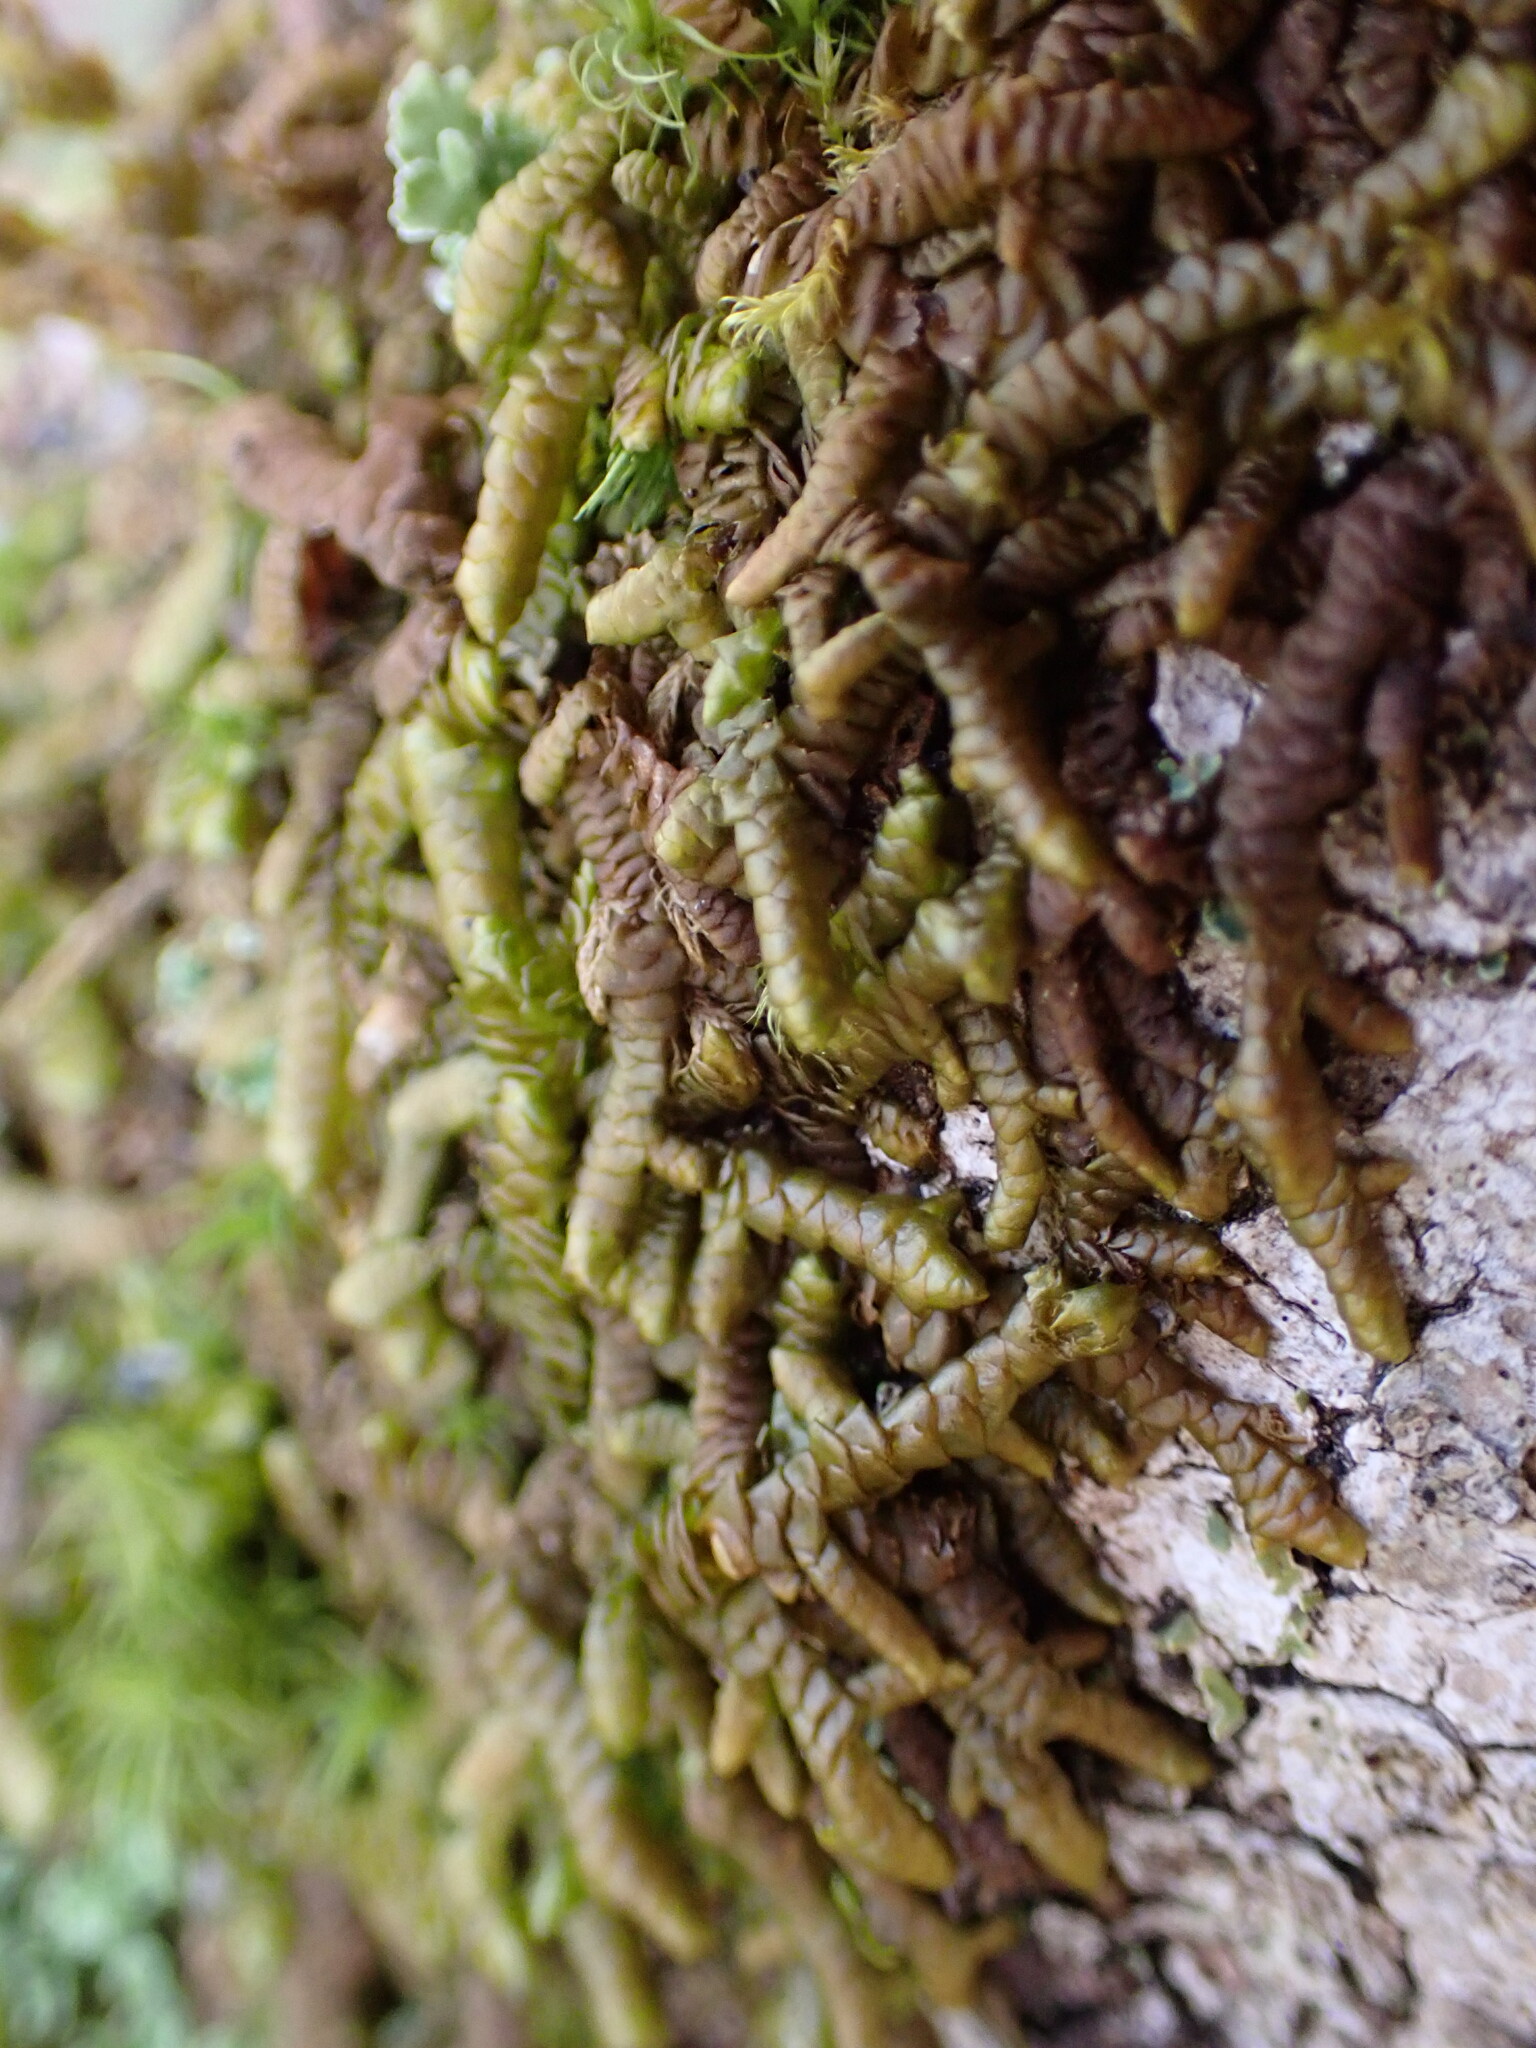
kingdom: Plantae
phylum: Marchantiophyta
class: Jungermanniopsida
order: Porellales
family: Porellaceae
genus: Porella
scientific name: Porella navicularis
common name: Tree ruffle liverwort
